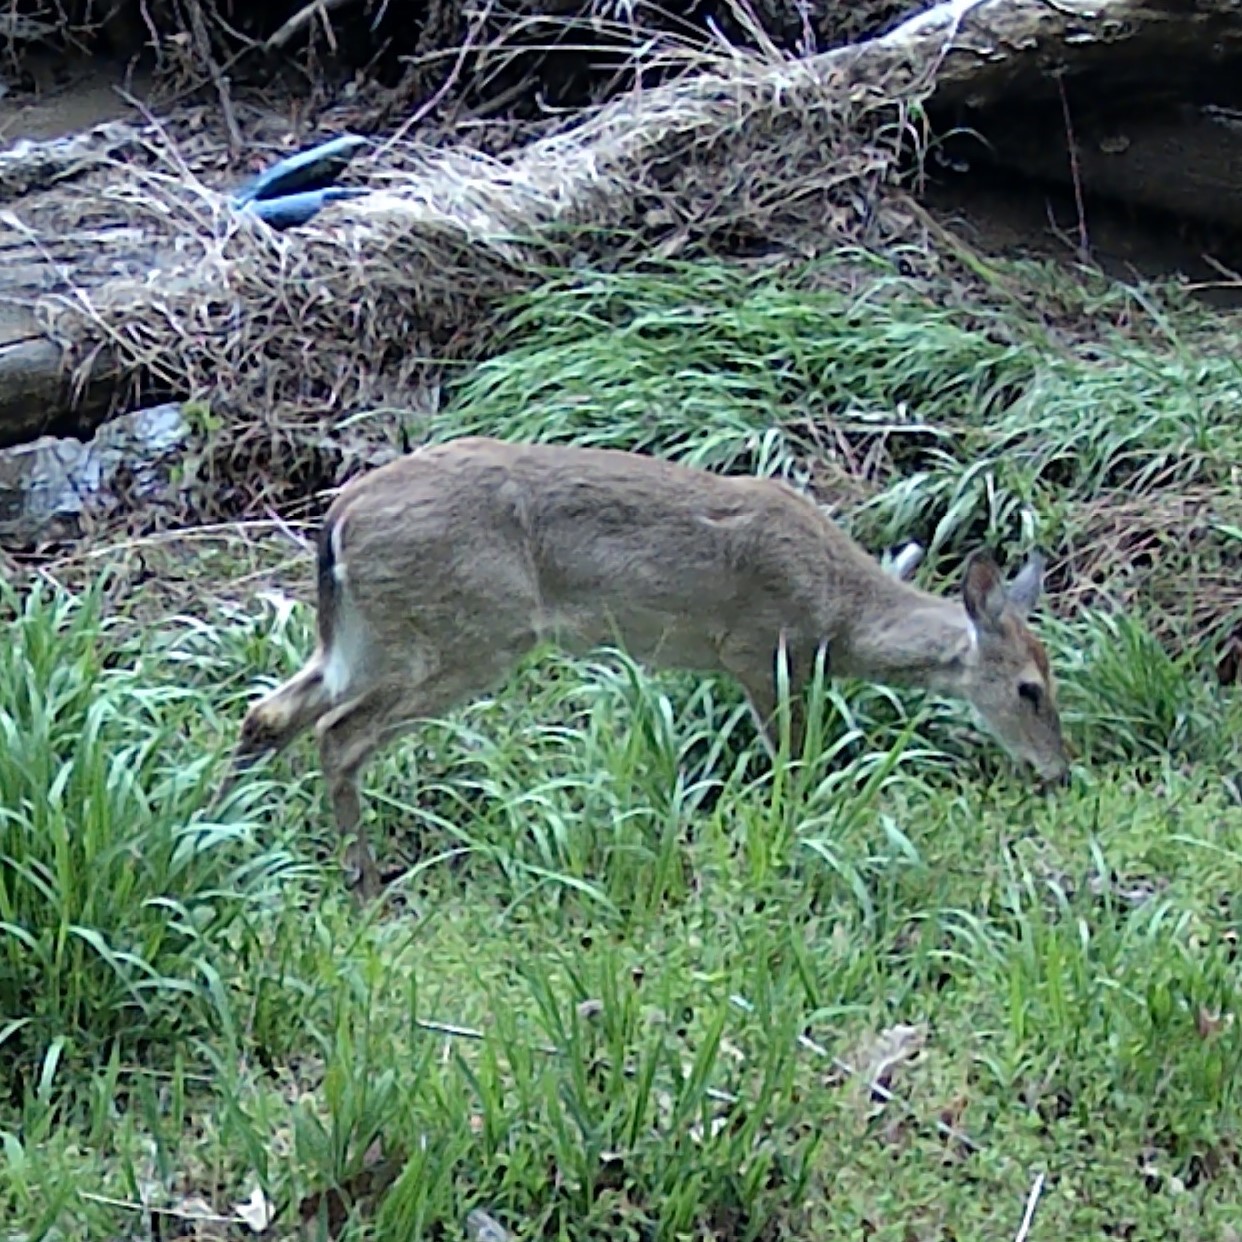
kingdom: Animalia
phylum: Chordata
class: Mammalia
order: Artiodactyla
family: Cervidae
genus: Odocoileus
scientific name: Odocoileus virginianus
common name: White-tailed deer
